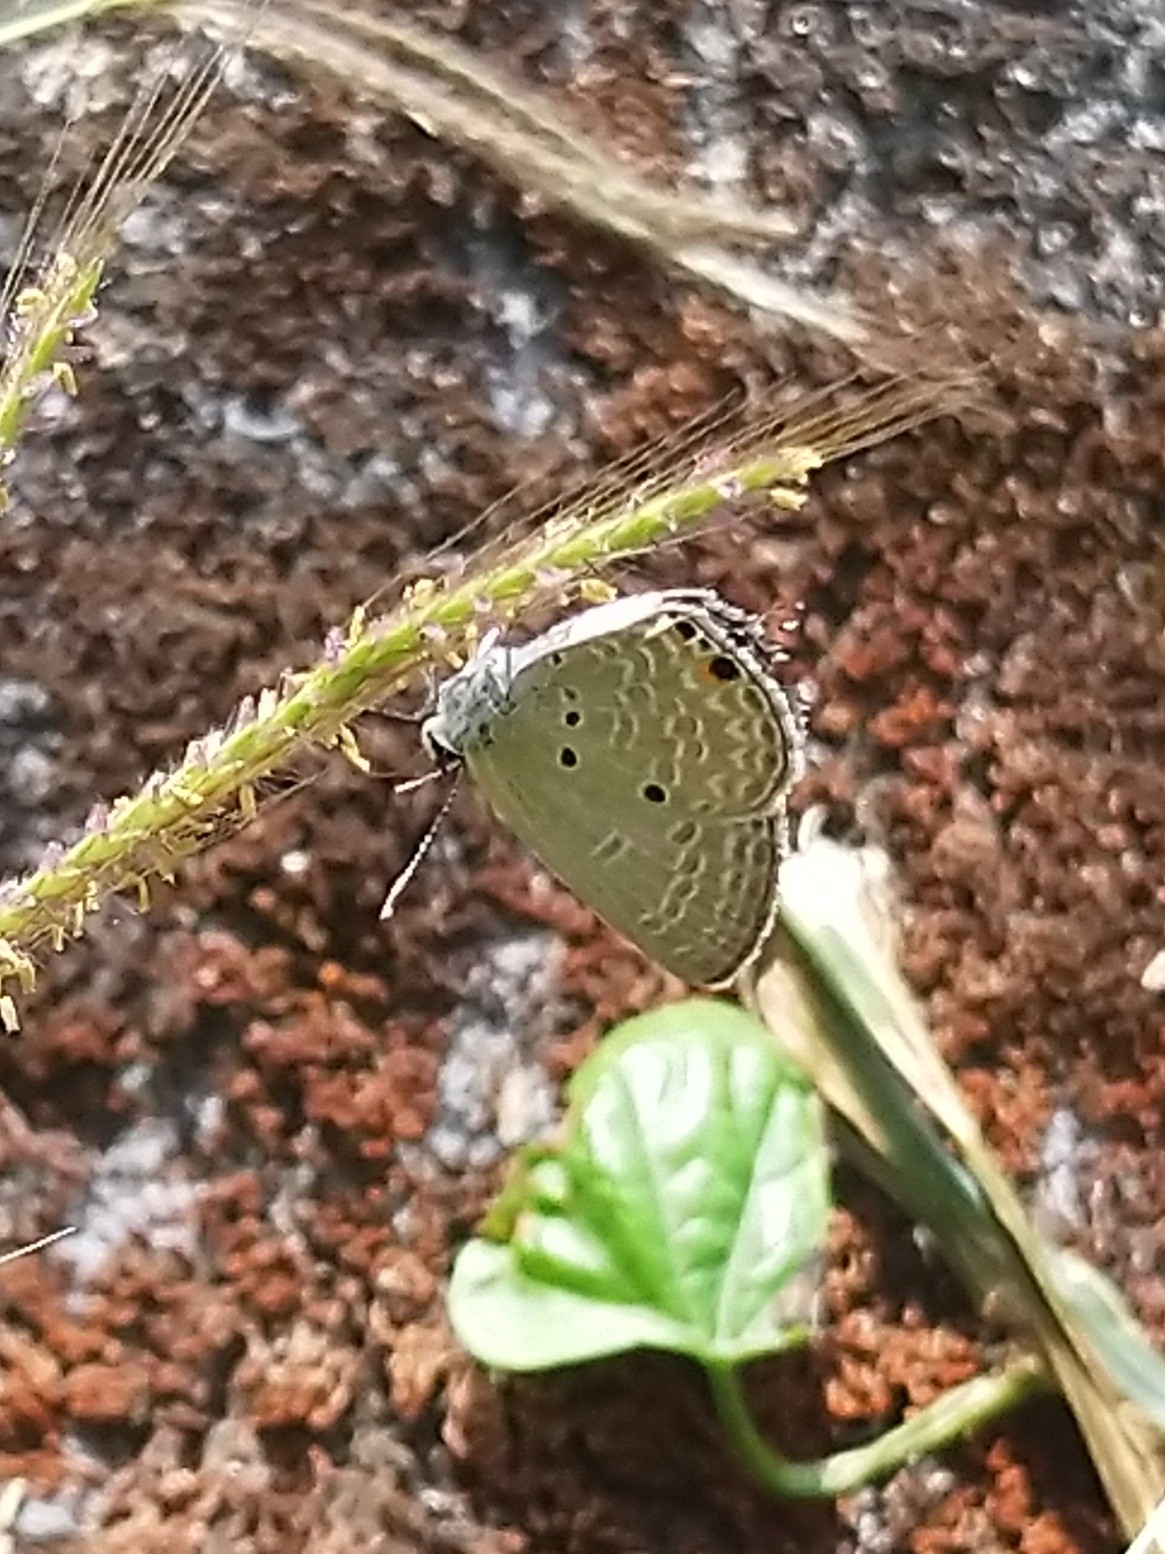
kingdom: Animalia
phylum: Arthropoda
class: Insecta
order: Lepidoptera
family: Lycaenidae
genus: Luthrodes
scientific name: Luthrodes pandava
